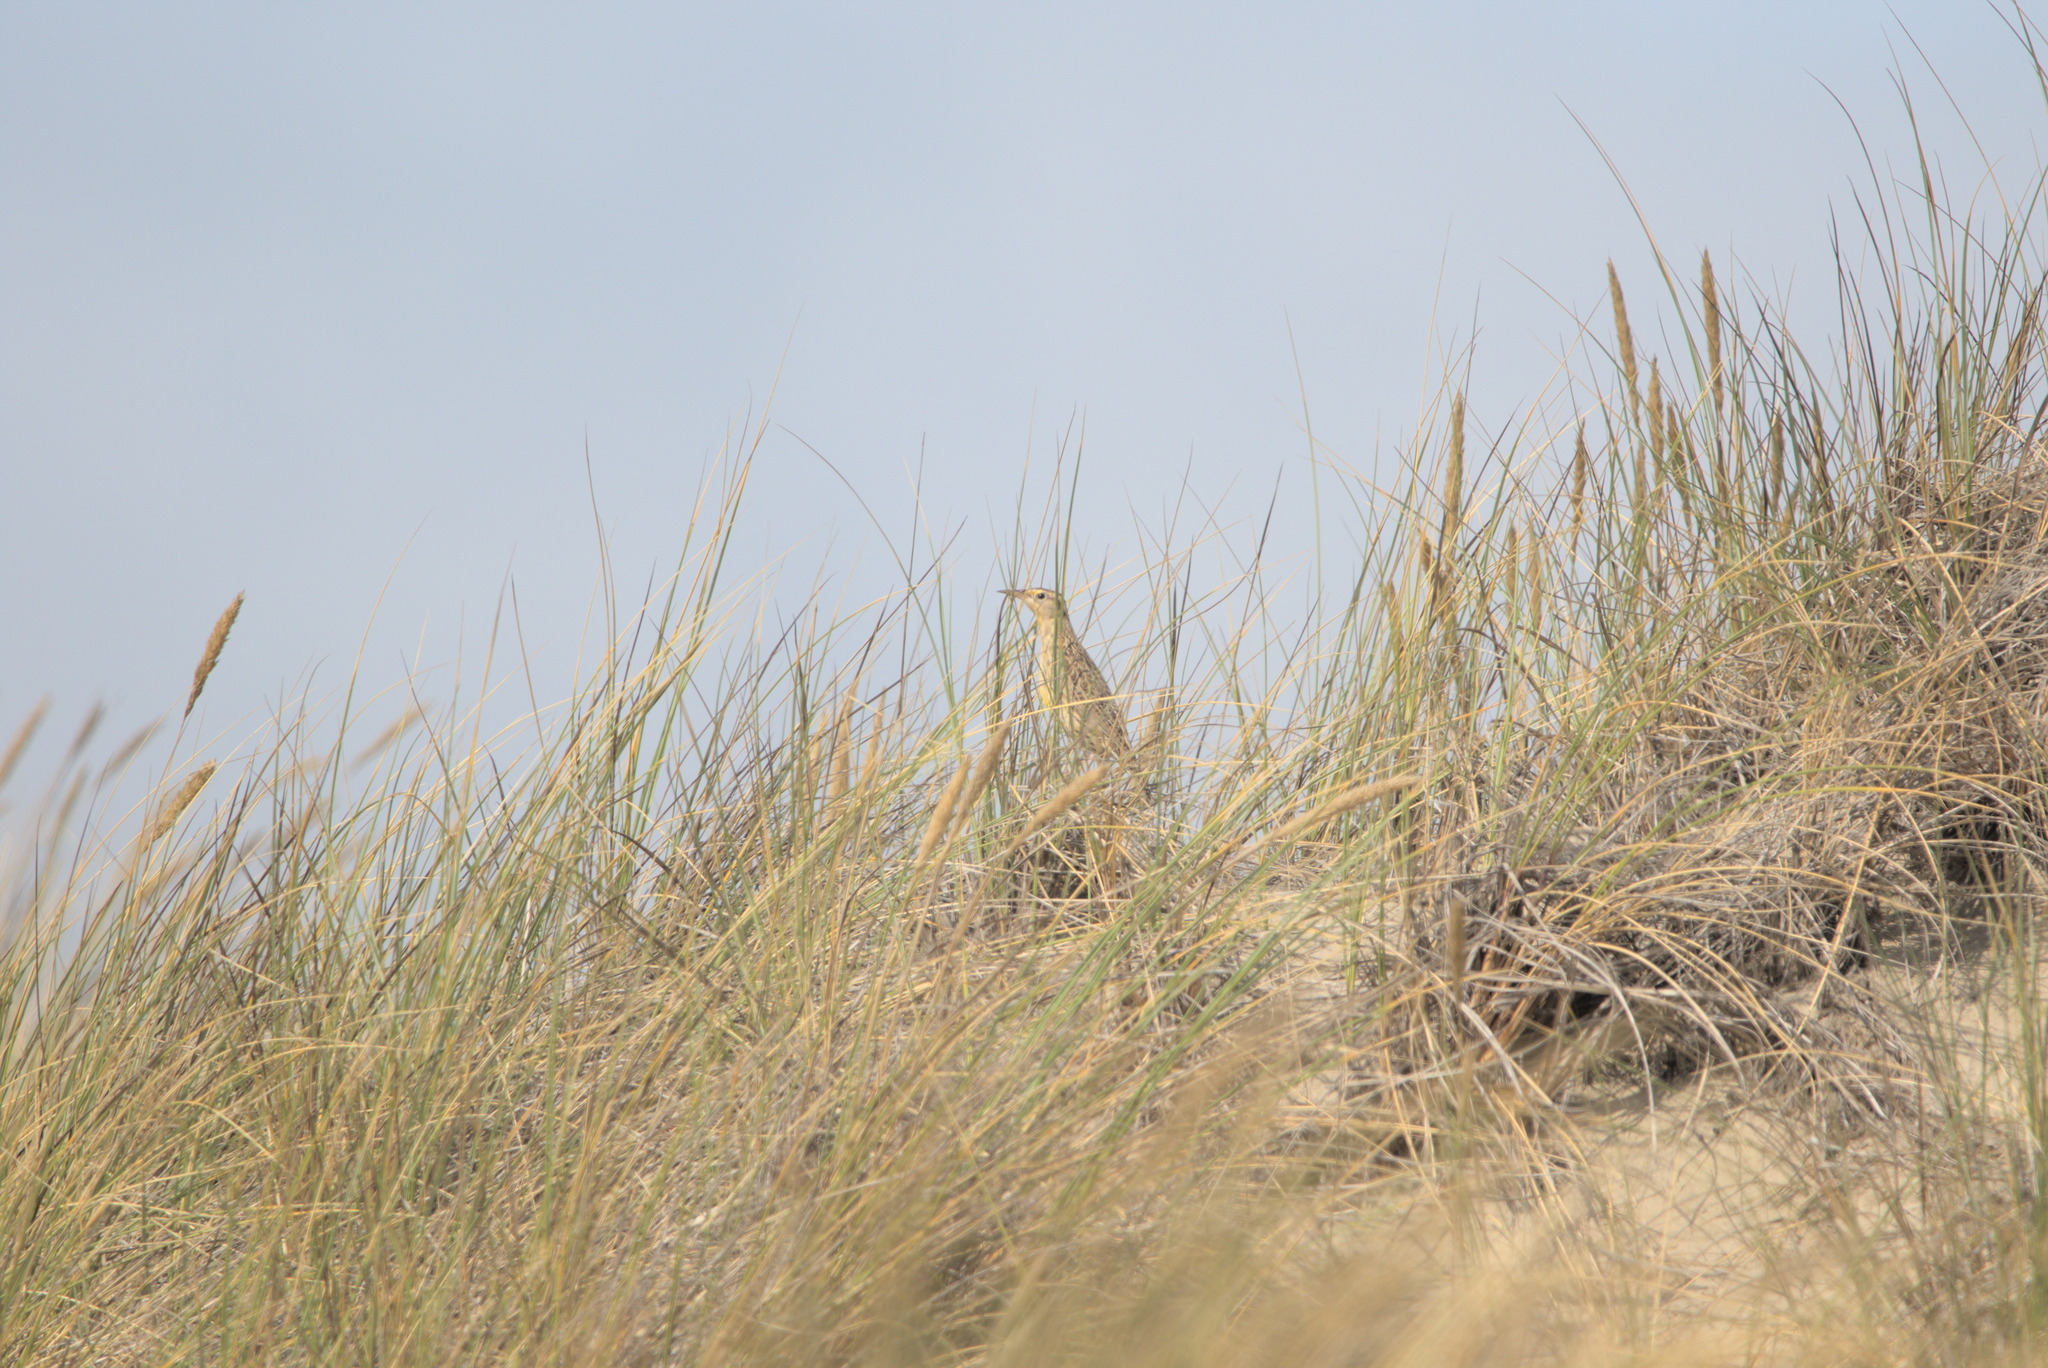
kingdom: Animalia
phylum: Chordata
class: Aves
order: Passeriformes
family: Icteridae
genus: Sturnella
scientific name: Sturnella neglecta
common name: Western meadowlark
